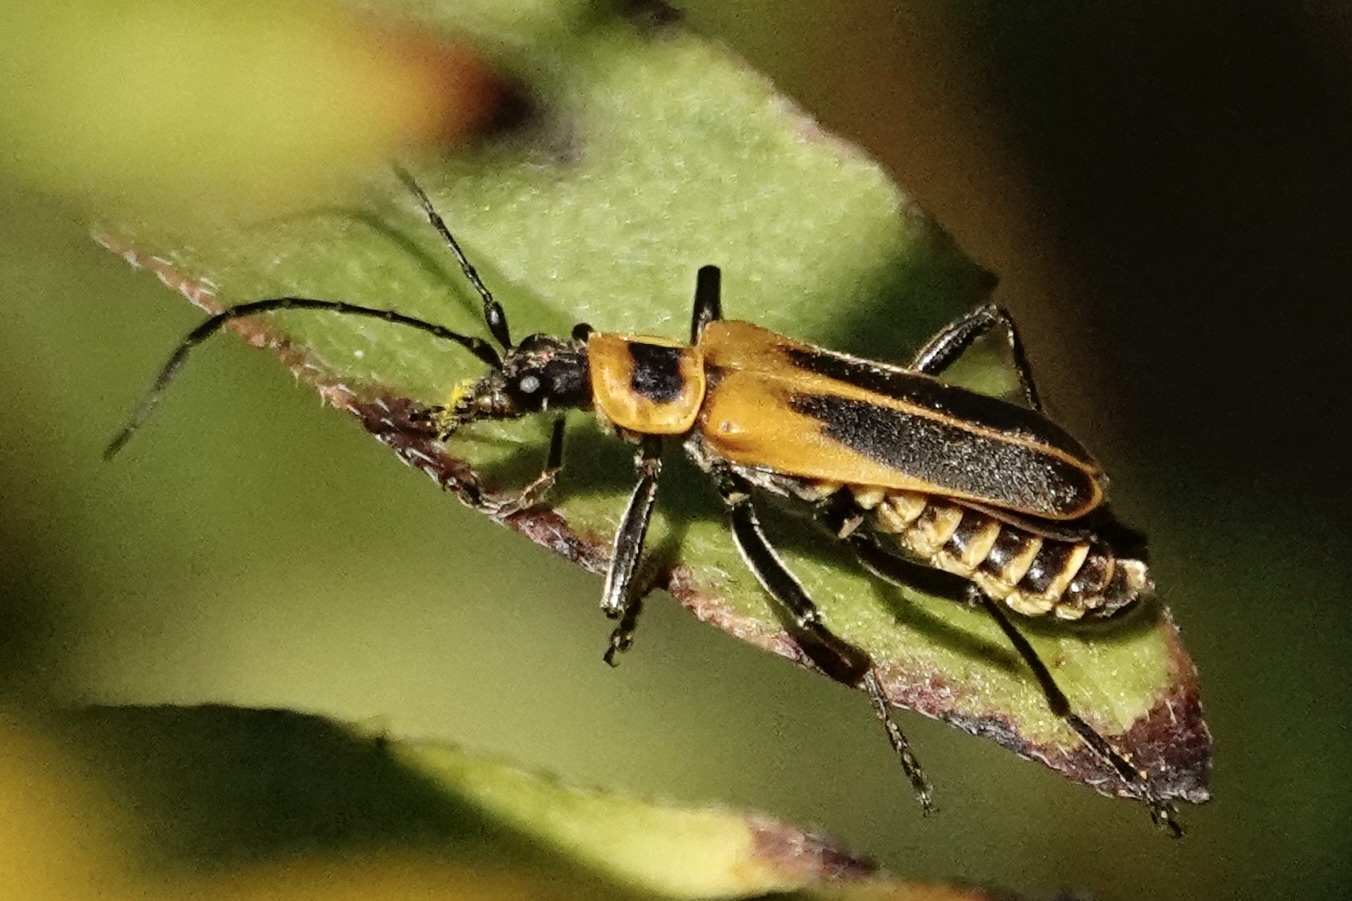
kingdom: Animalia
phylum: Arthropoda
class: Insecta
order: Coleoptera
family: Cantharidae
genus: Chauliognathus
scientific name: Chauliognathus pensylvanicus
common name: Goldenrod soldier beetle
